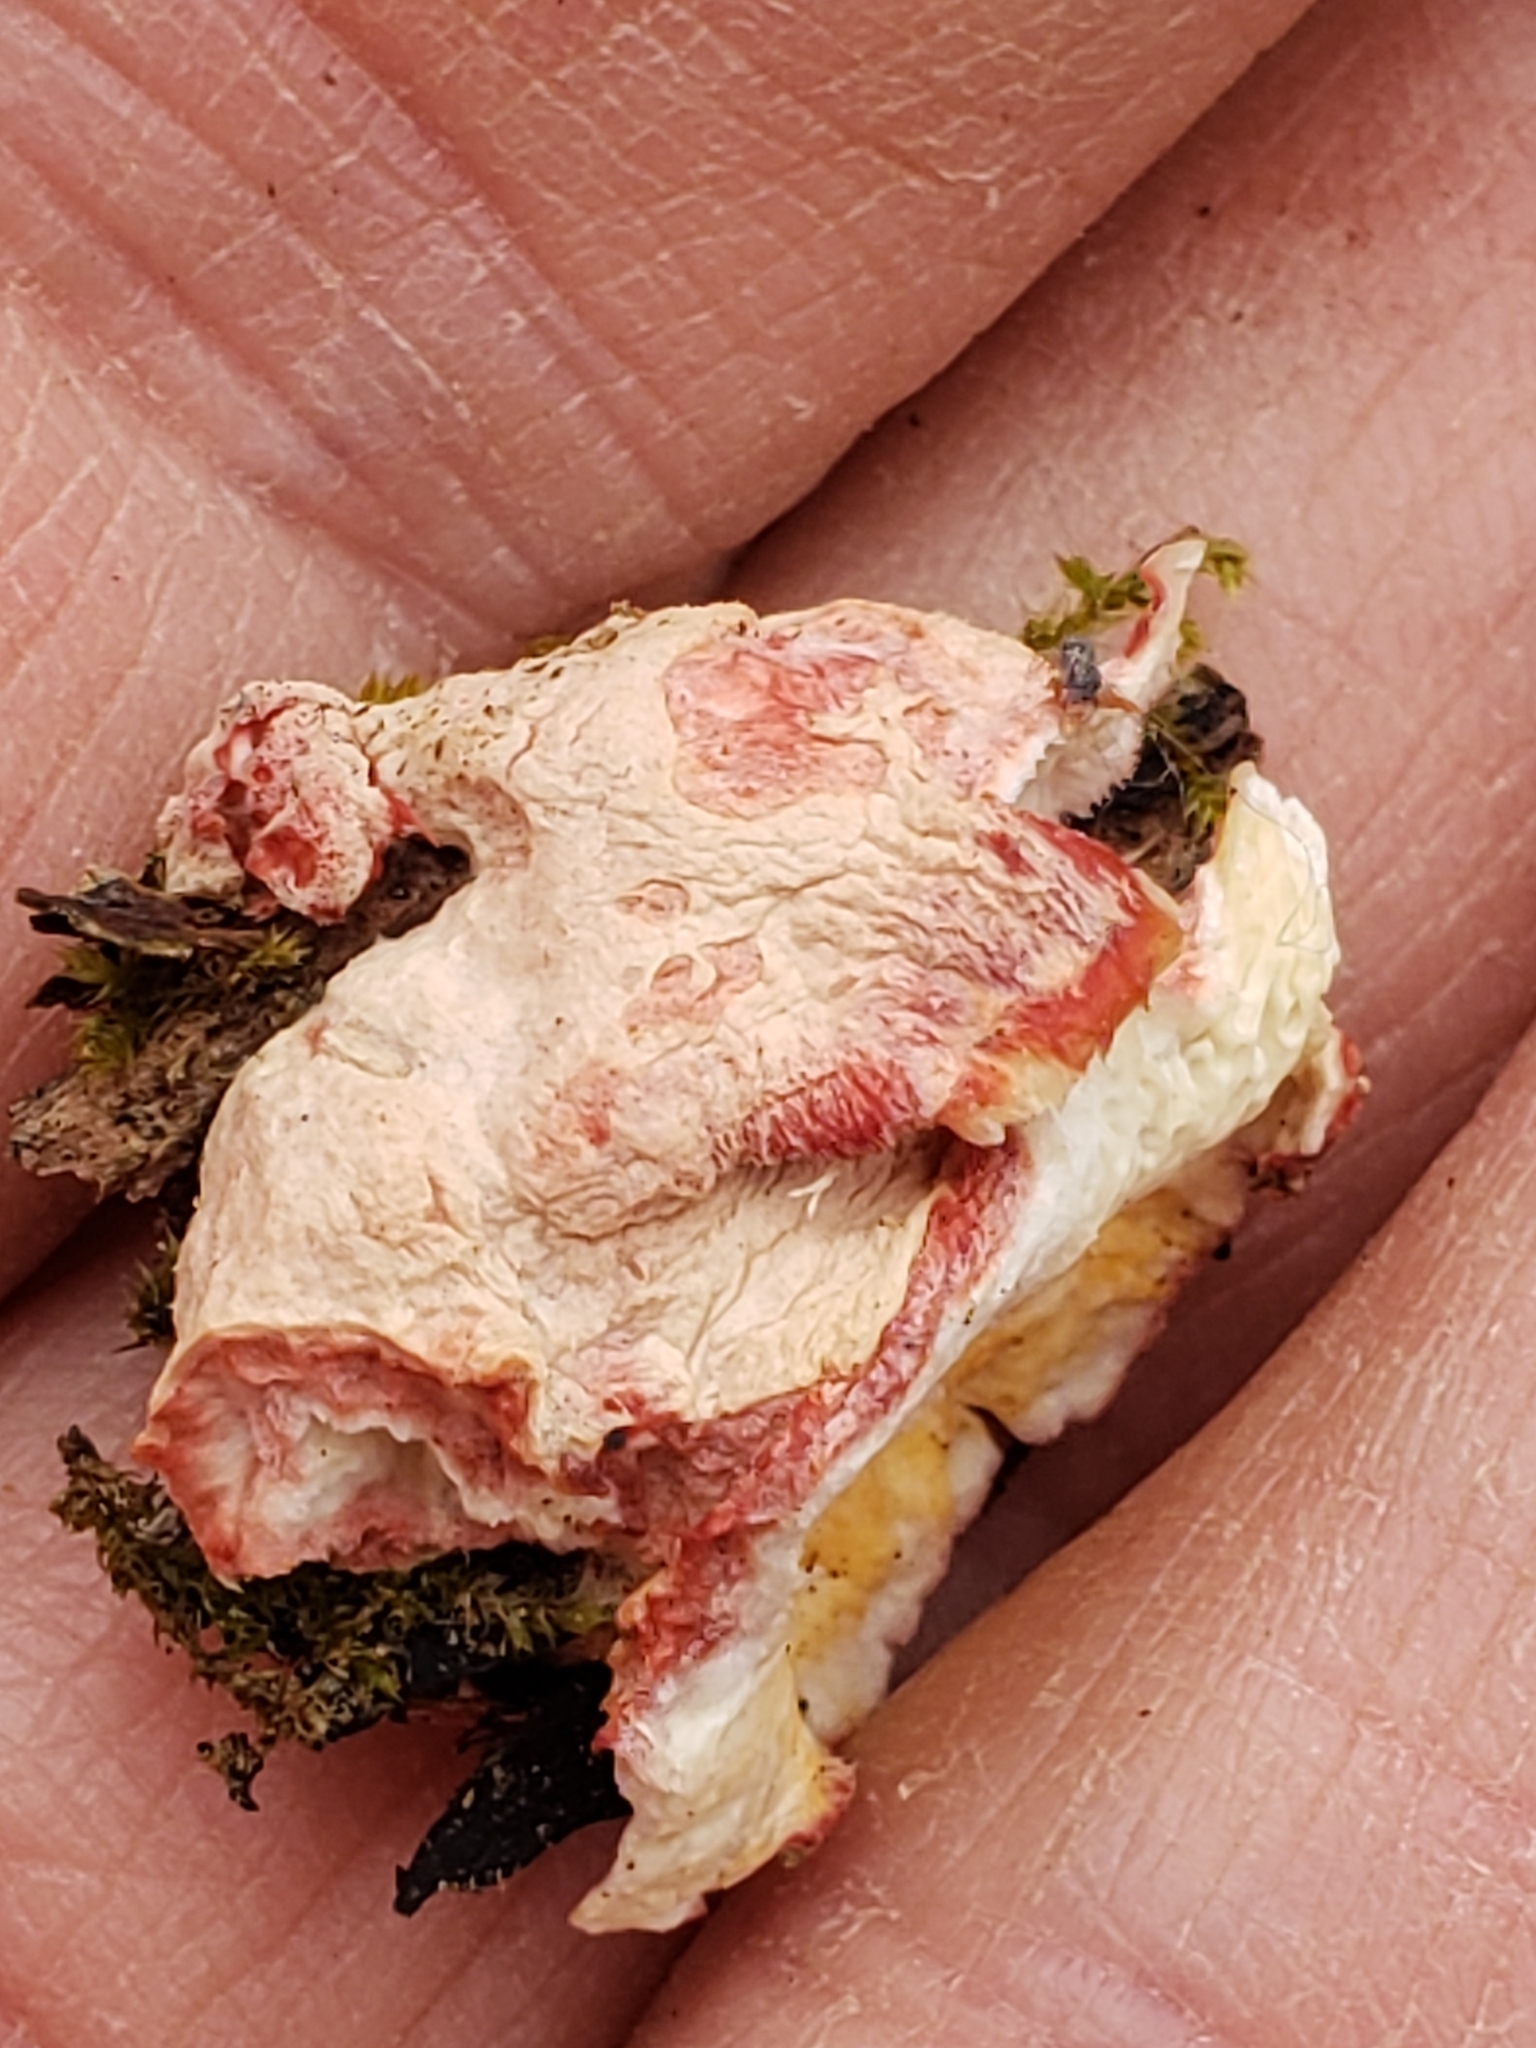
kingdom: Fungi
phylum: Basidiomycota
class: Agaricomycetes
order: Polyporales
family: Irpicaceae
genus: Byssomerulius
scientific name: Byssomerulius incarnatus
